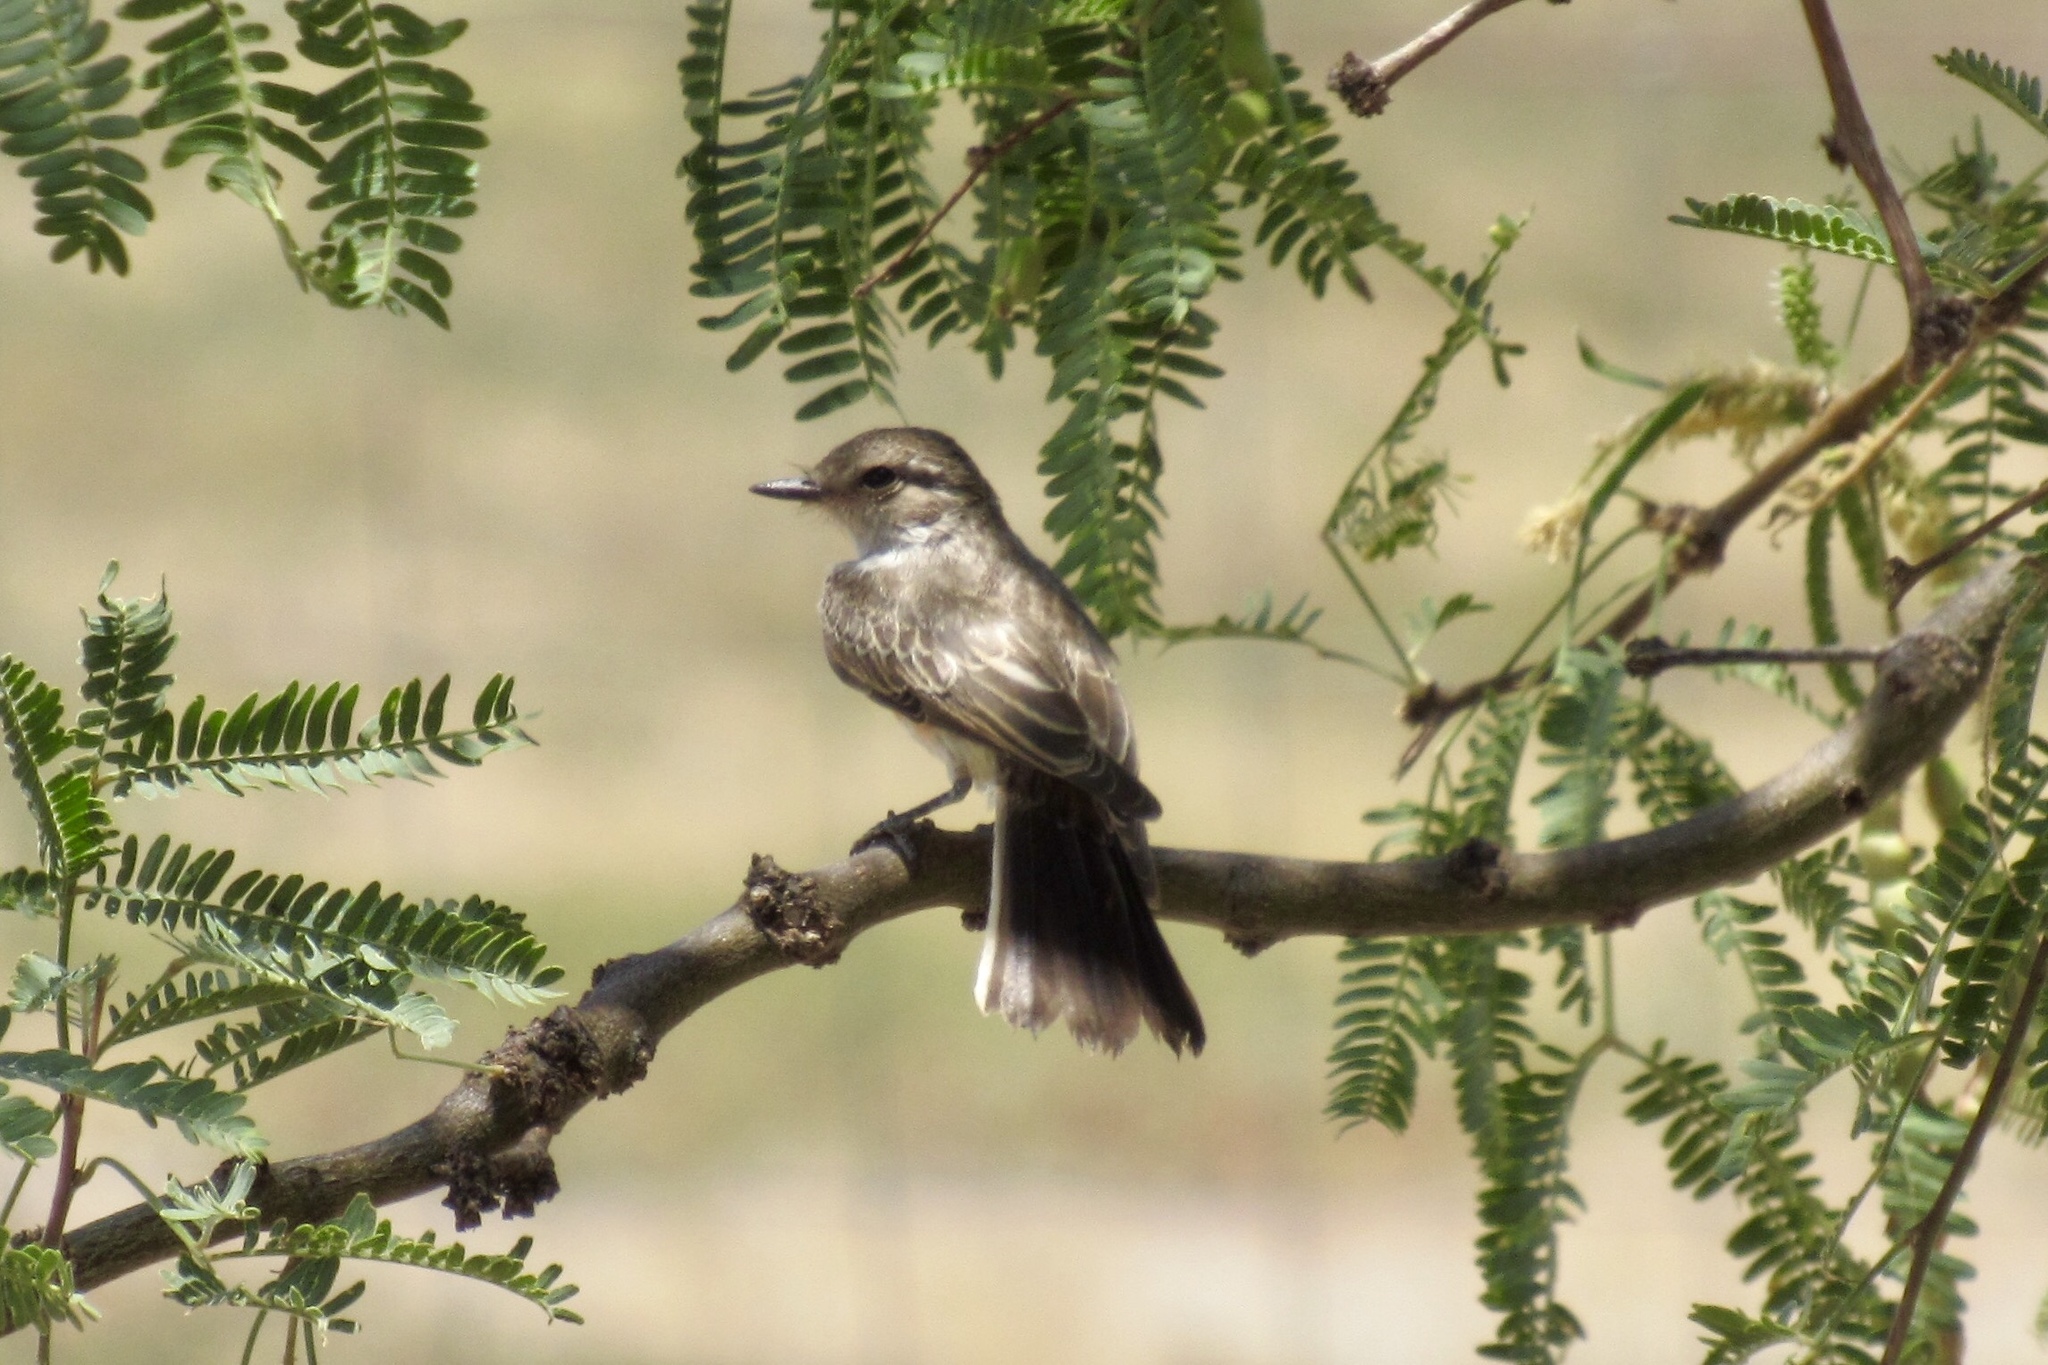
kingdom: Animalia
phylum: Chordata
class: Aves
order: Passeriformes
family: Tyrannidae
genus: Pyrocephalus
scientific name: Pyrocephalus rubinus
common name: Vermilion flycatcher
